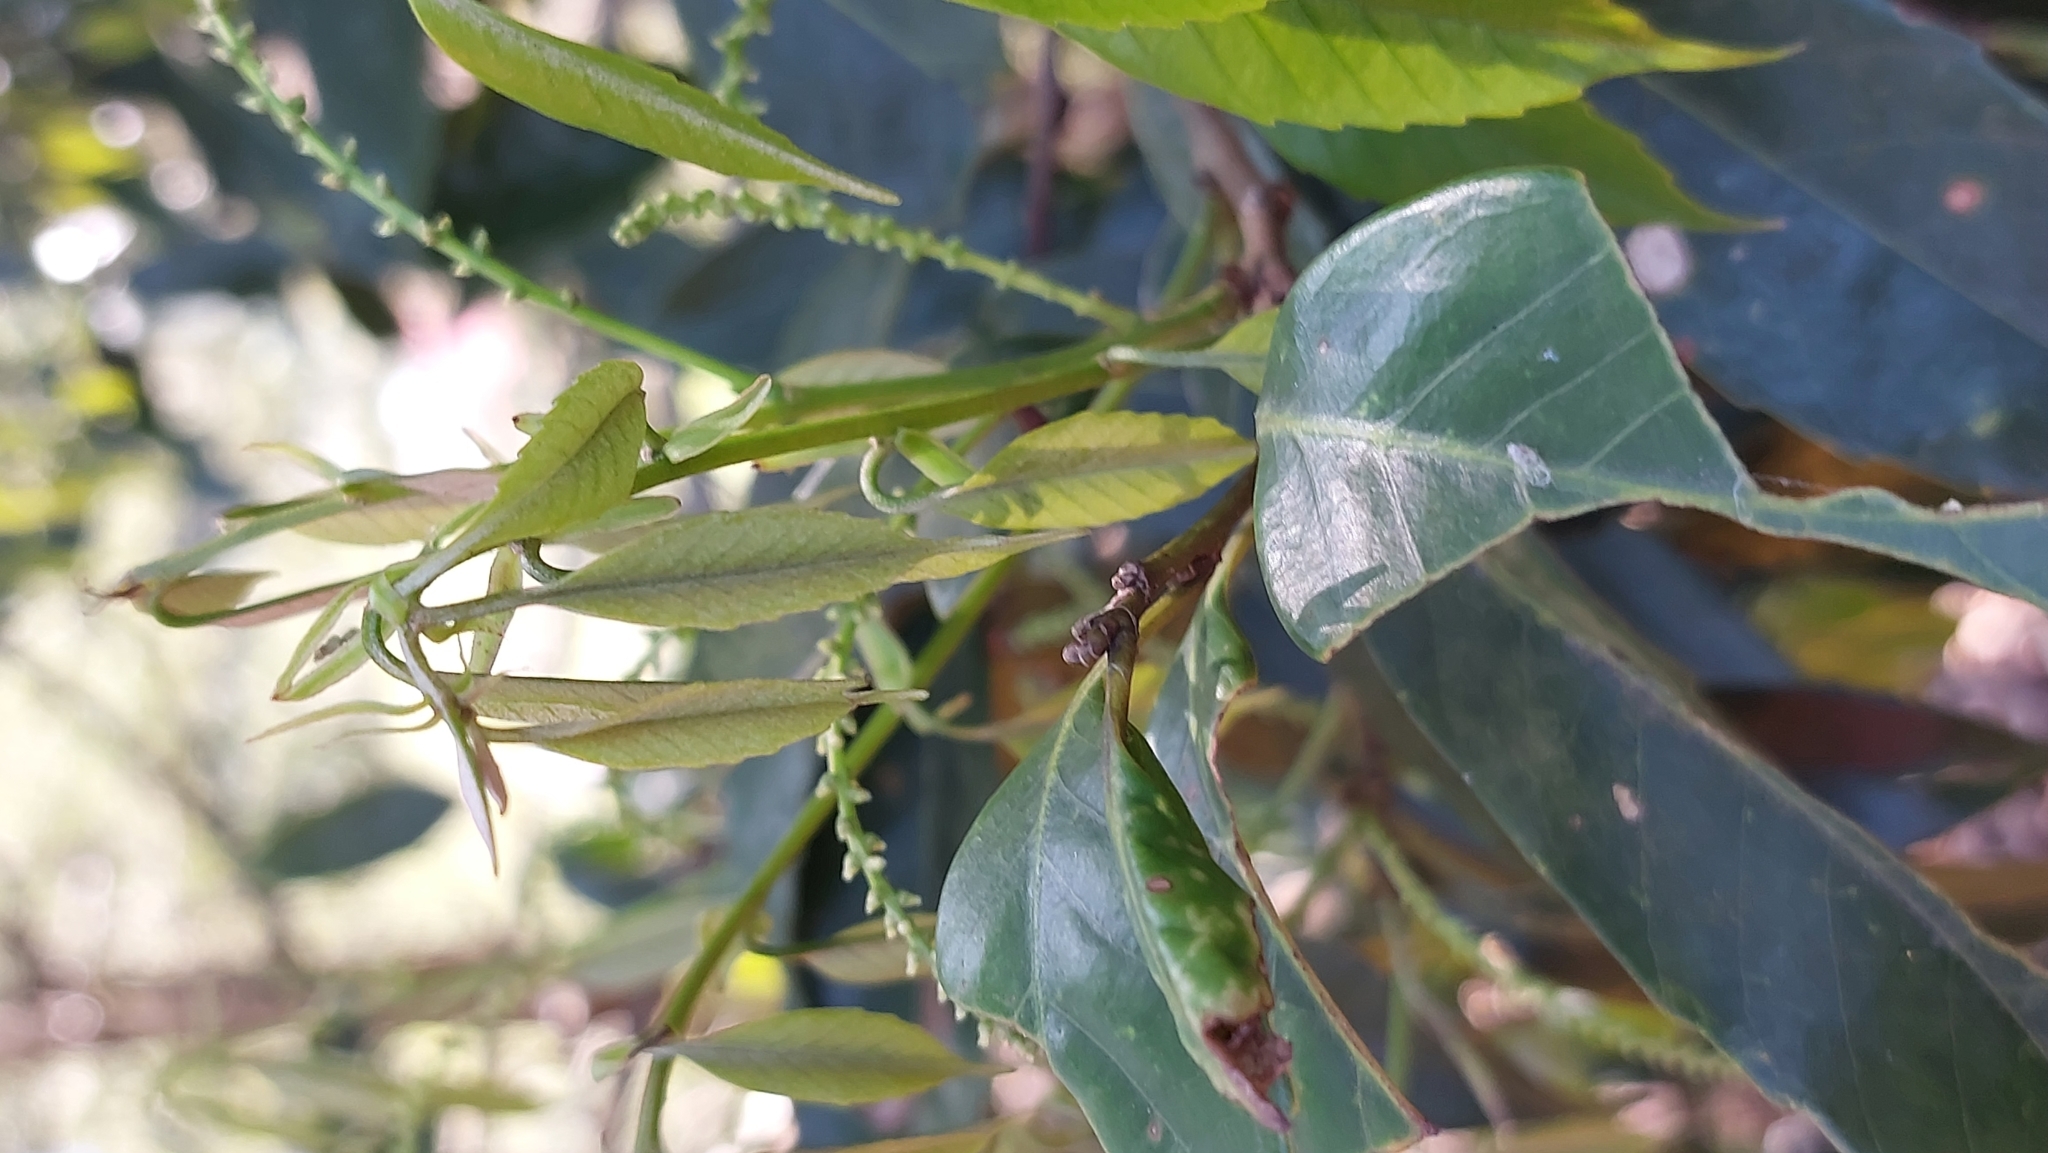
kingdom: Plantae
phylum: Tracheophyta
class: Magnoliopsida
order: Fagales
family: Fagaceae
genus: Castanopsis
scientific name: Castanopsis carlesii
